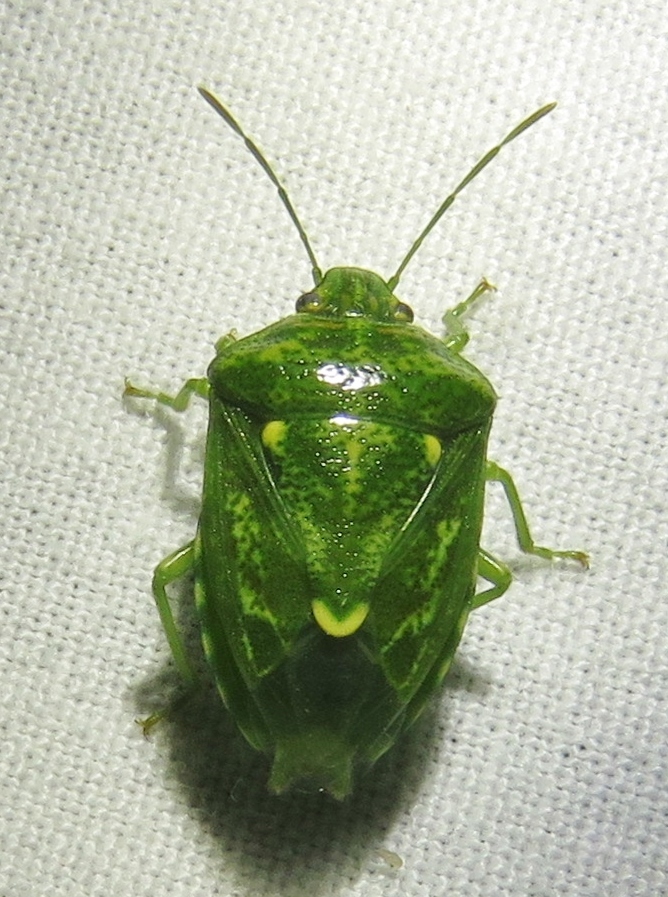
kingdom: Animalia
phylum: Arthropoda
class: Insecta
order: Hemiptera
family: Pentatomidae
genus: Banasa
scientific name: Banasa euchlora
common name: Cedar berry bug
